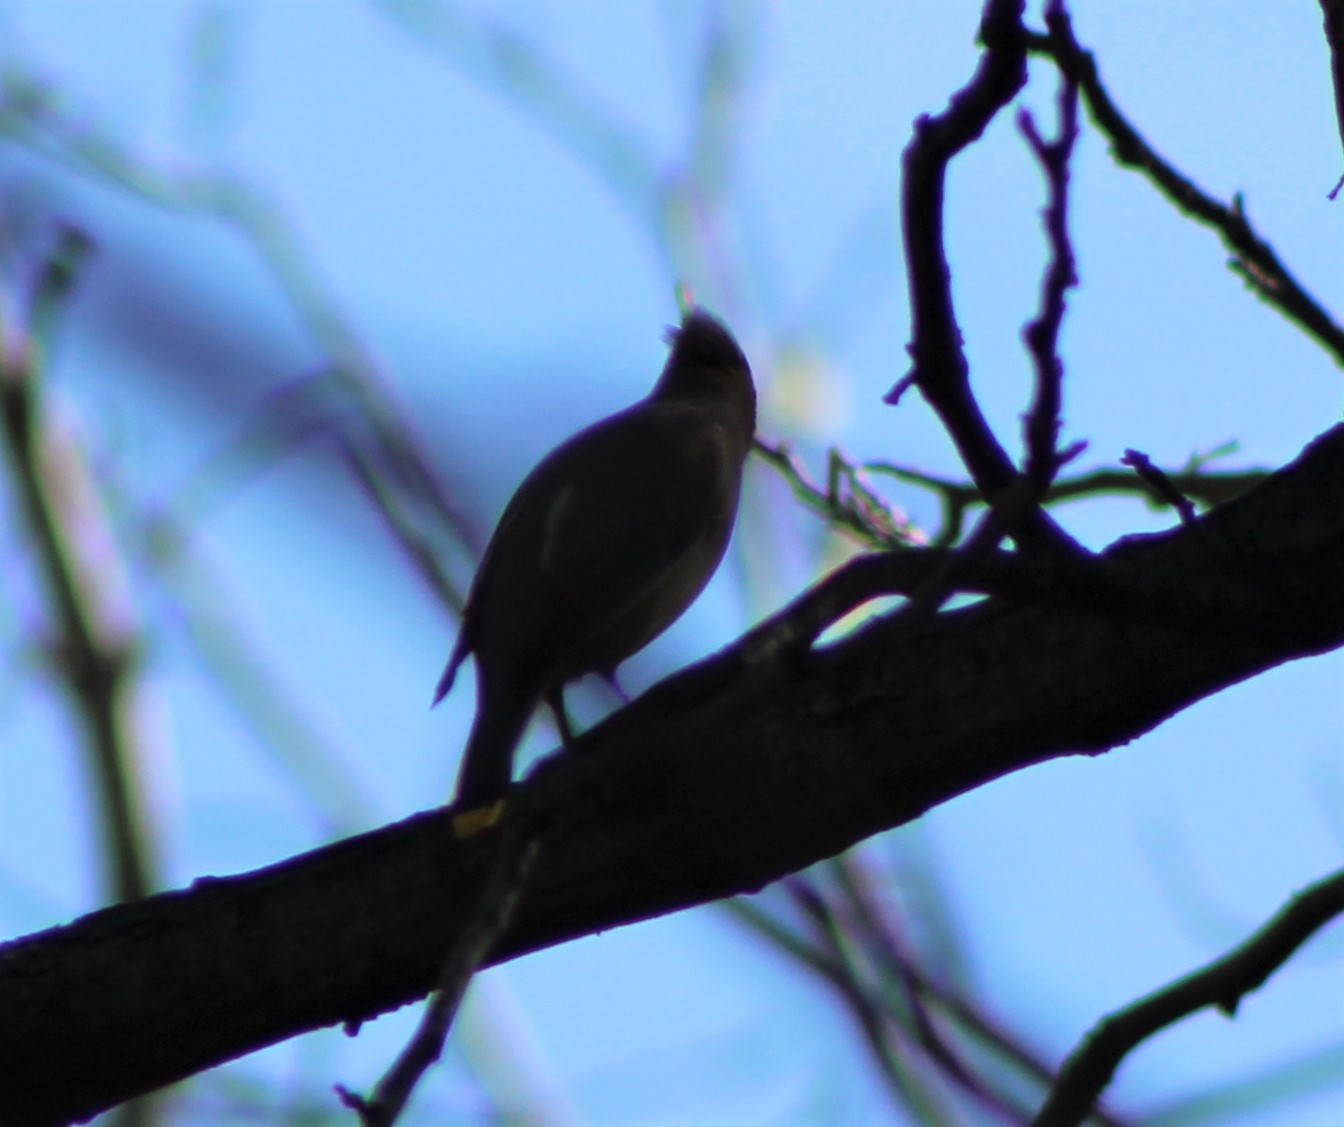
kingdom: Animalia
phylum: Chordata
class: Aves
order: Passeriformes
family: Bombycillidae
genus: Bombycilla
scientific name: Bombycilla cedrorum
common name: Cedar waxwing
